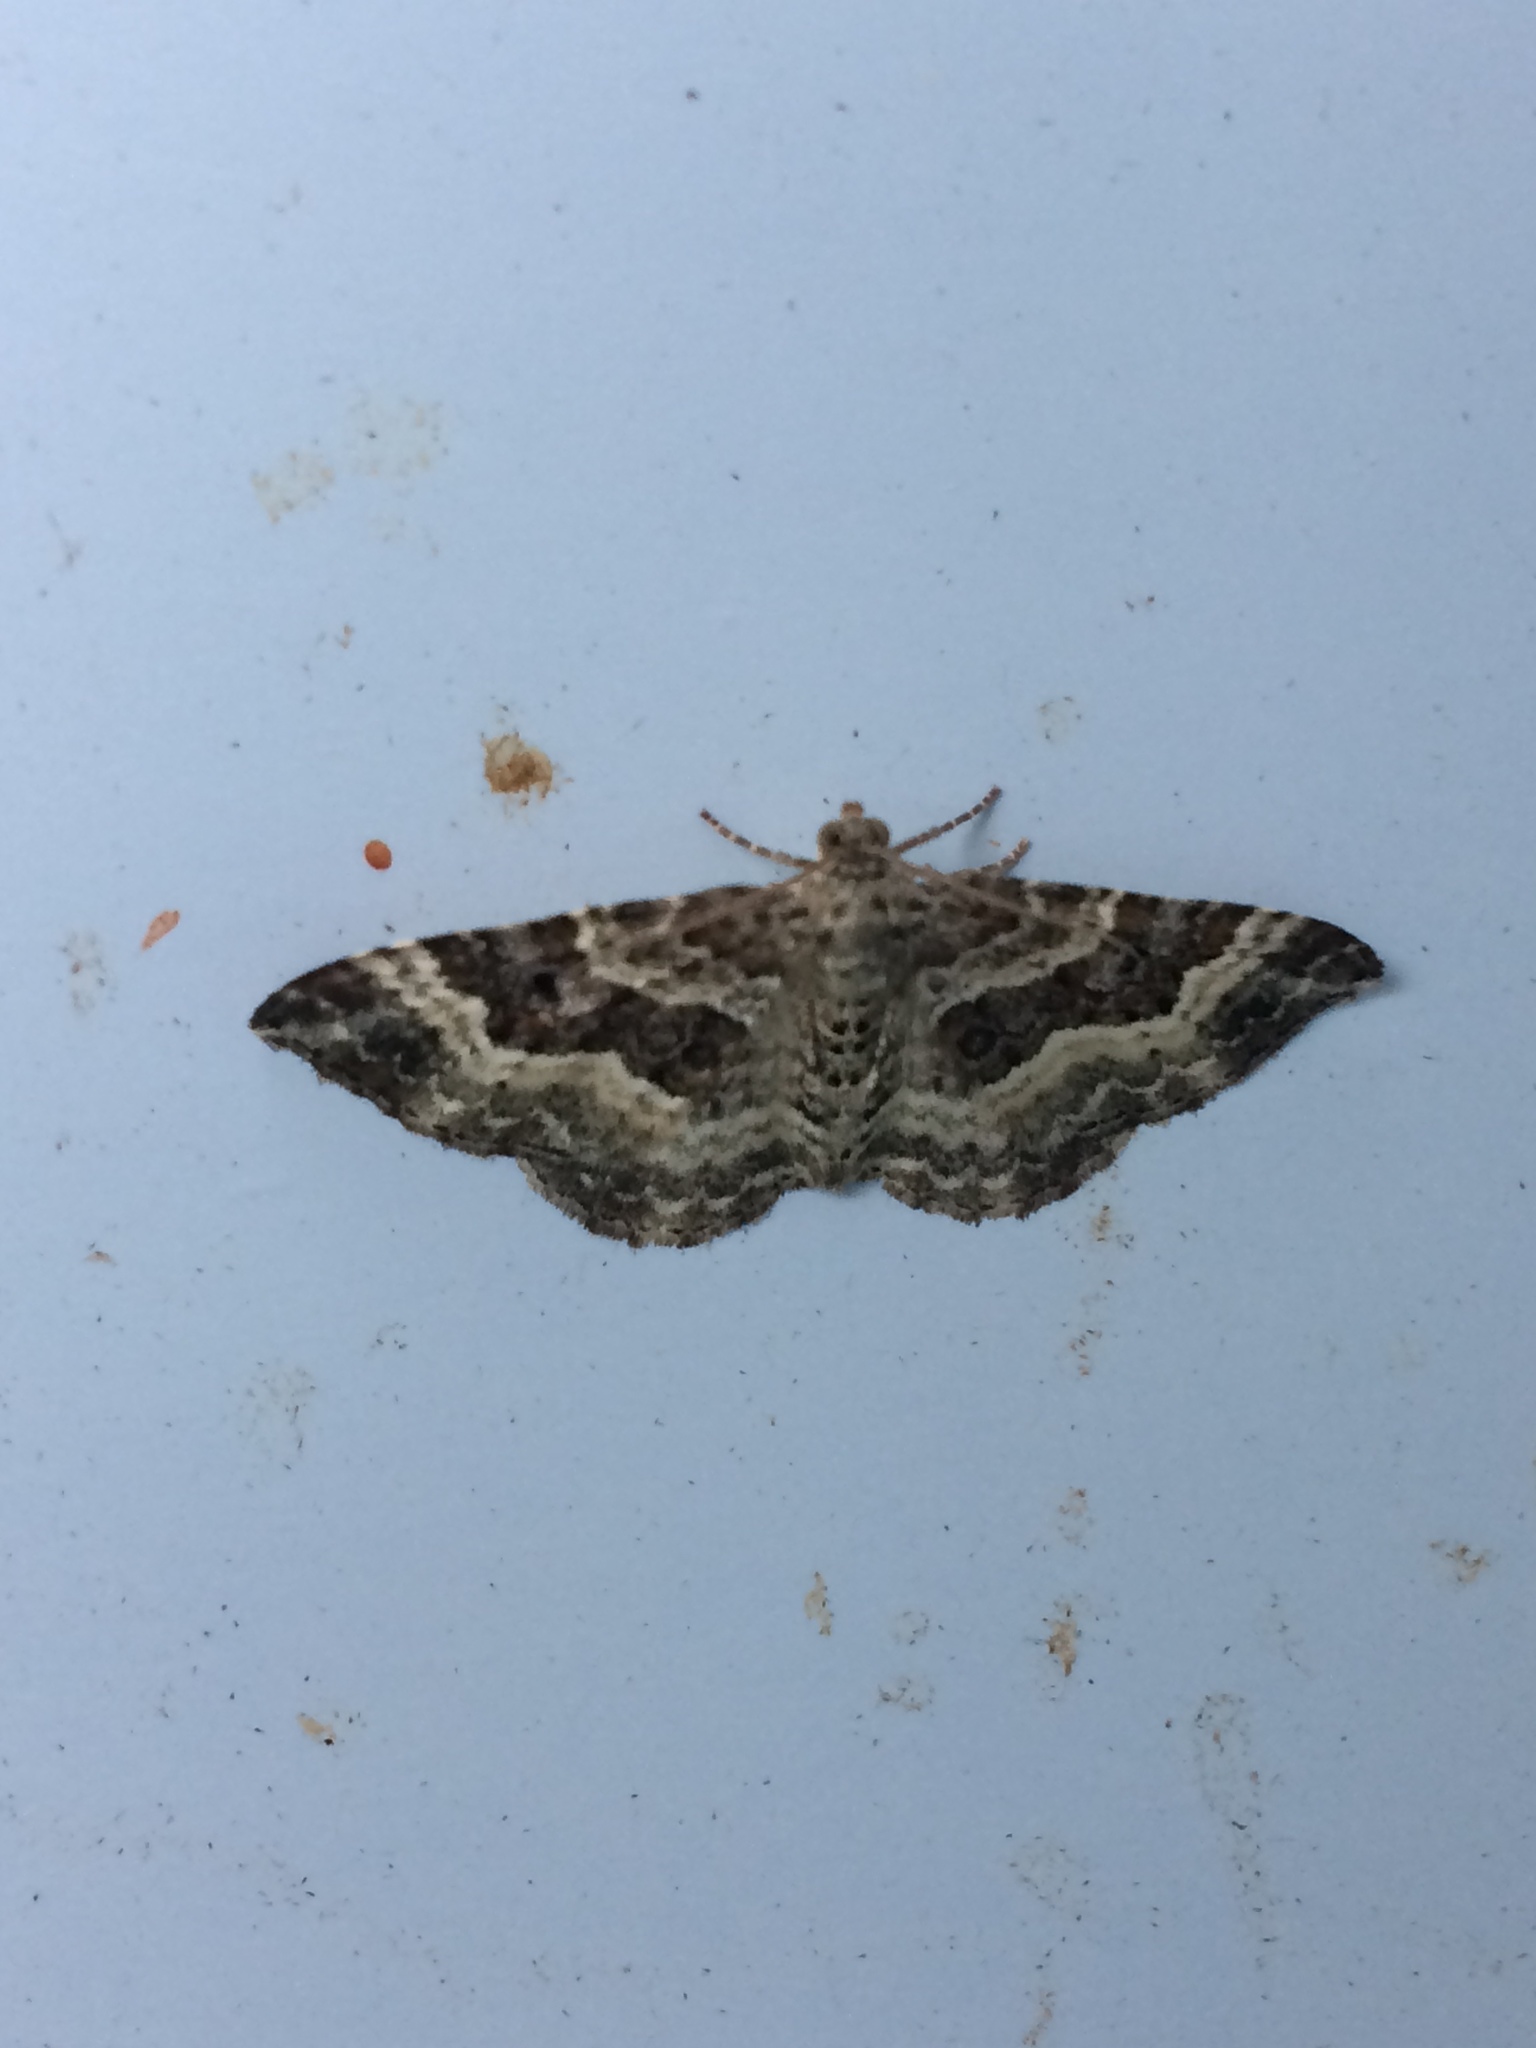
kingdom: Animalia
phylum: Arthropoda
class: Insecta
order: Lepidoptera
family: Geometridae
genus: Epirrhoe
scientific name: Epirrhoe alternata
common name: Common carpet
